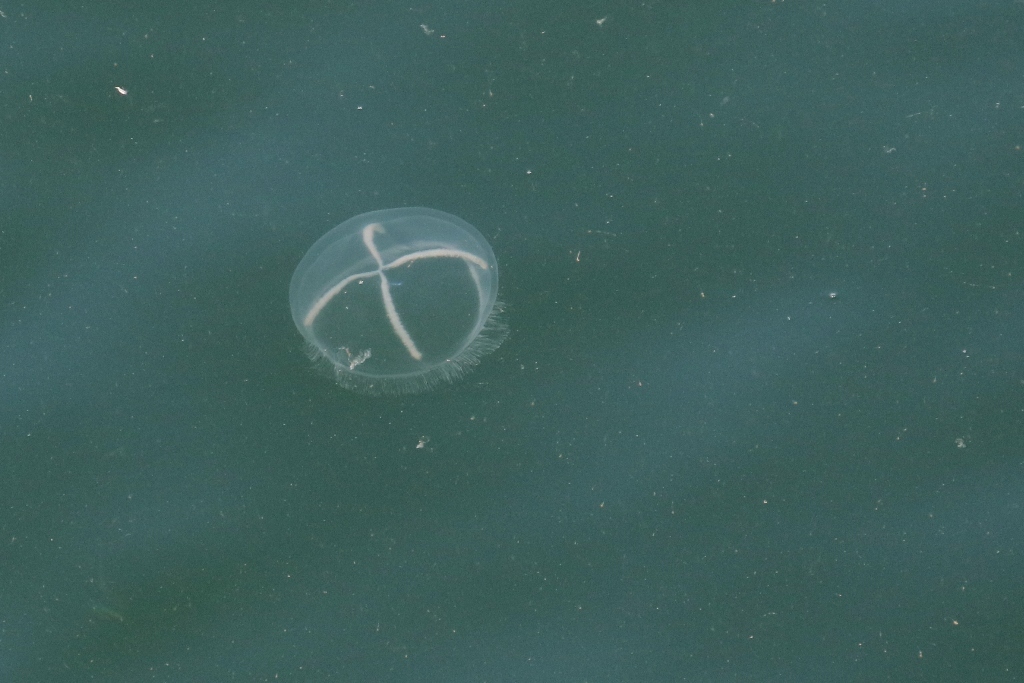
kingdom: Animalia
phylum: Cnidaria
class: Hydrozoa
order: Leptothecata
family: Laodiceidae
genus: Staurostoma
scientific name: Staurostoma mertensii
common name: Whitecross jellyfish
